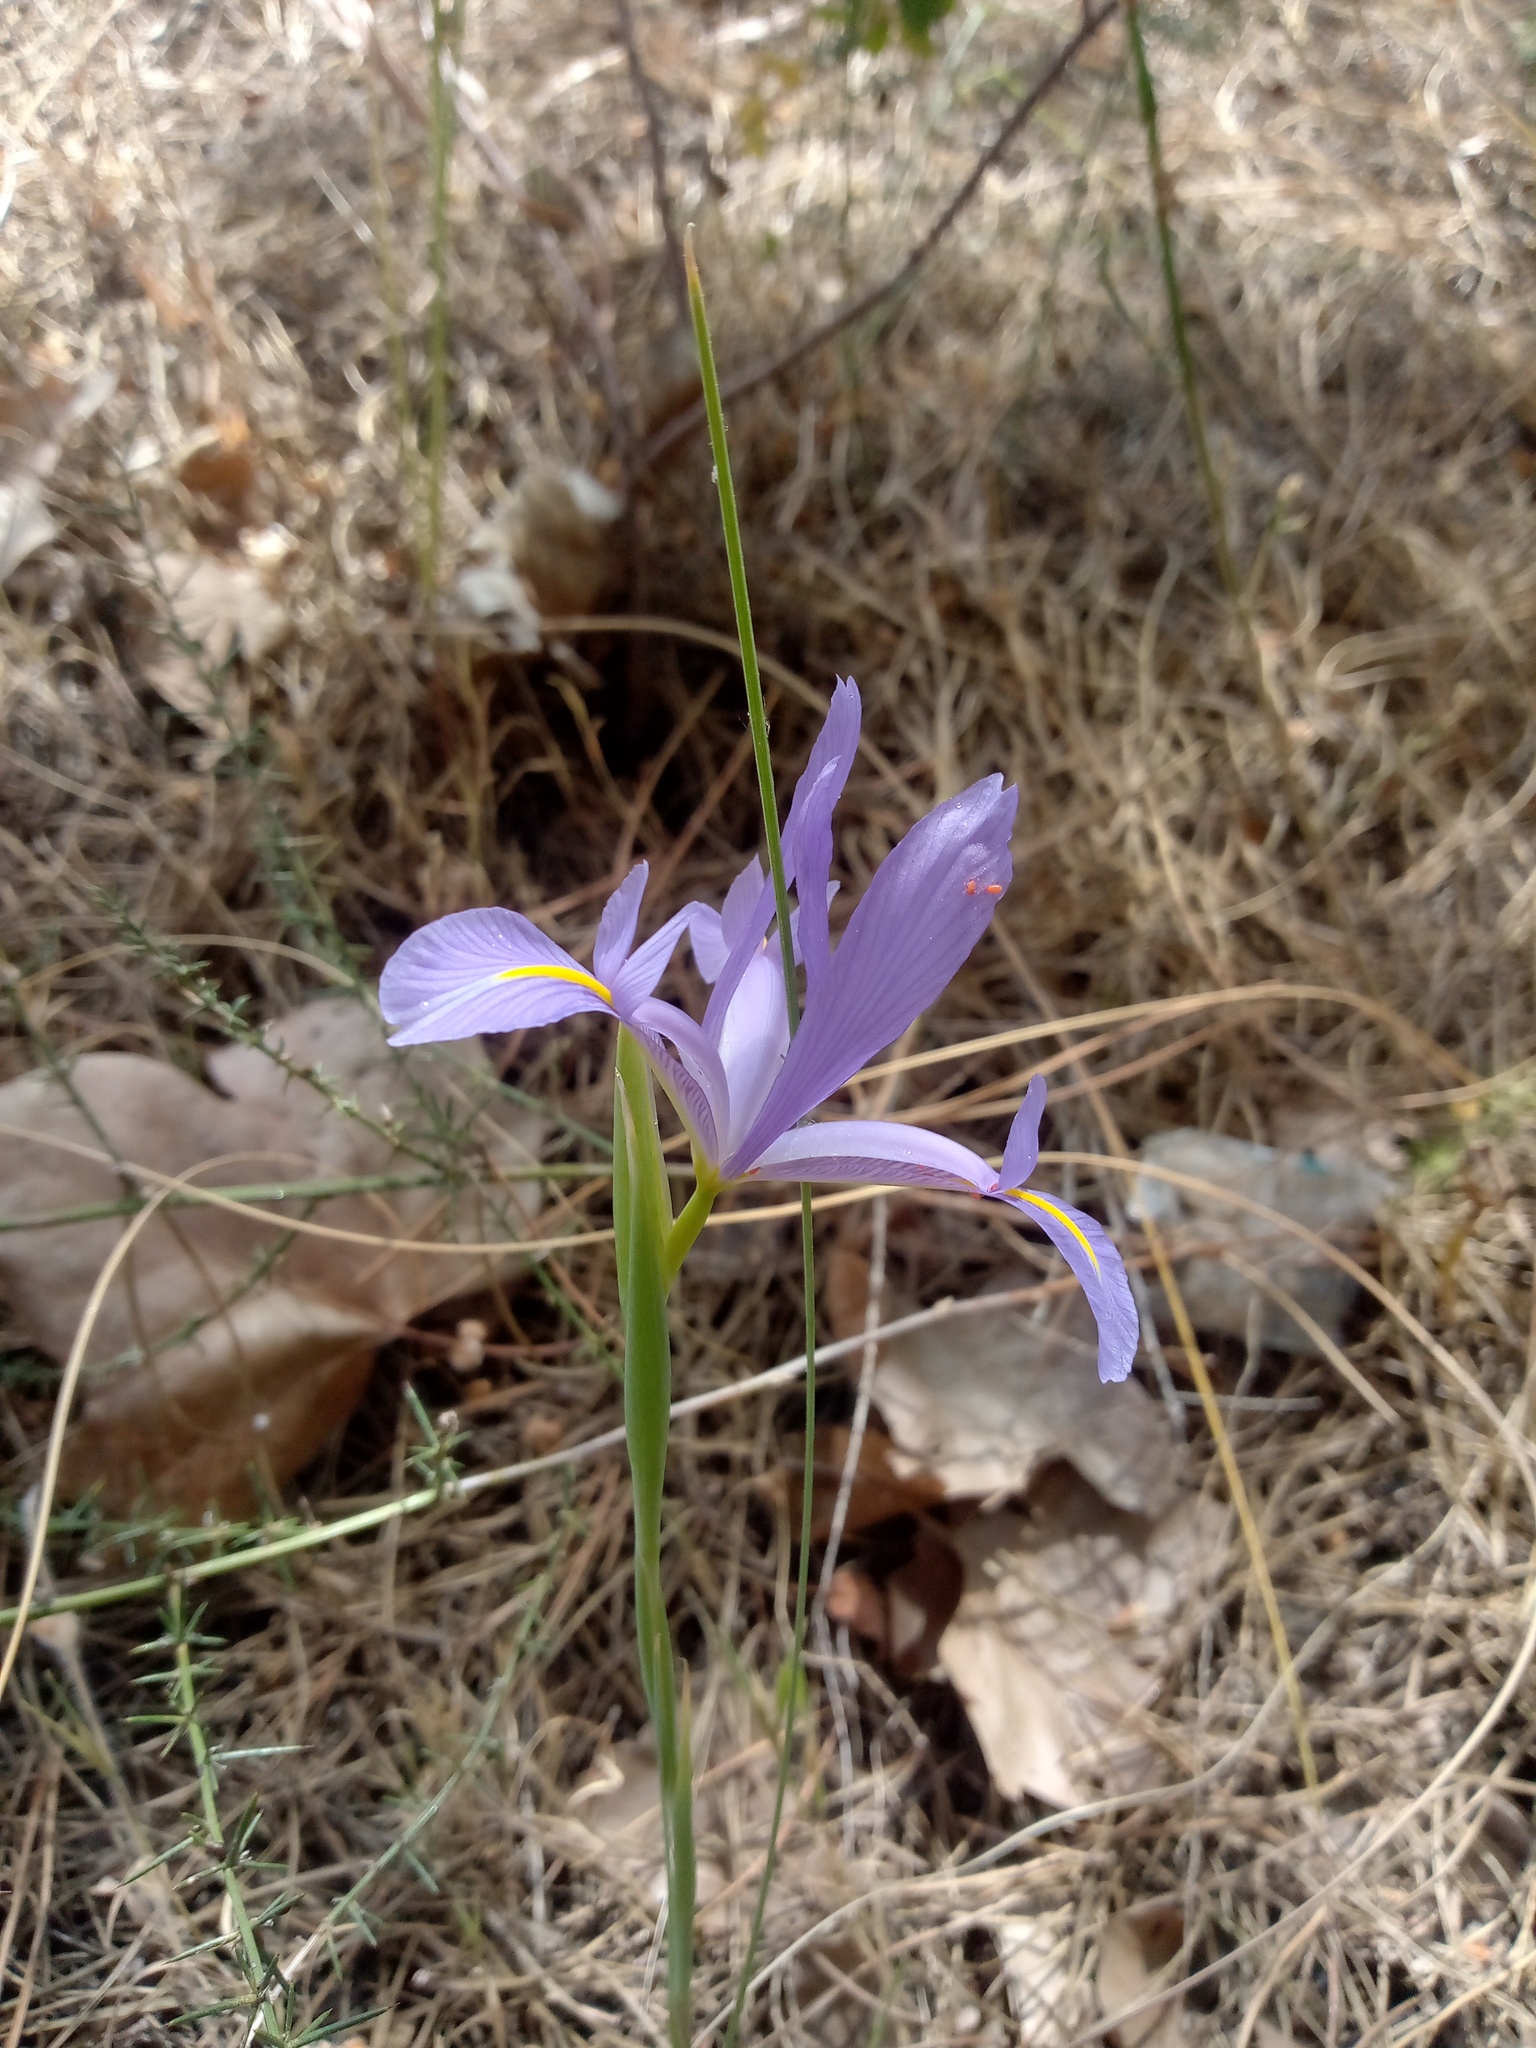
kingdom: Plantae
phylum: Tracheophyta
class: Liliopsida
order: Asparagales
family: Iridaceae
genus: Iris
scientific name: Iris xiphium
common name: Spanish iris
